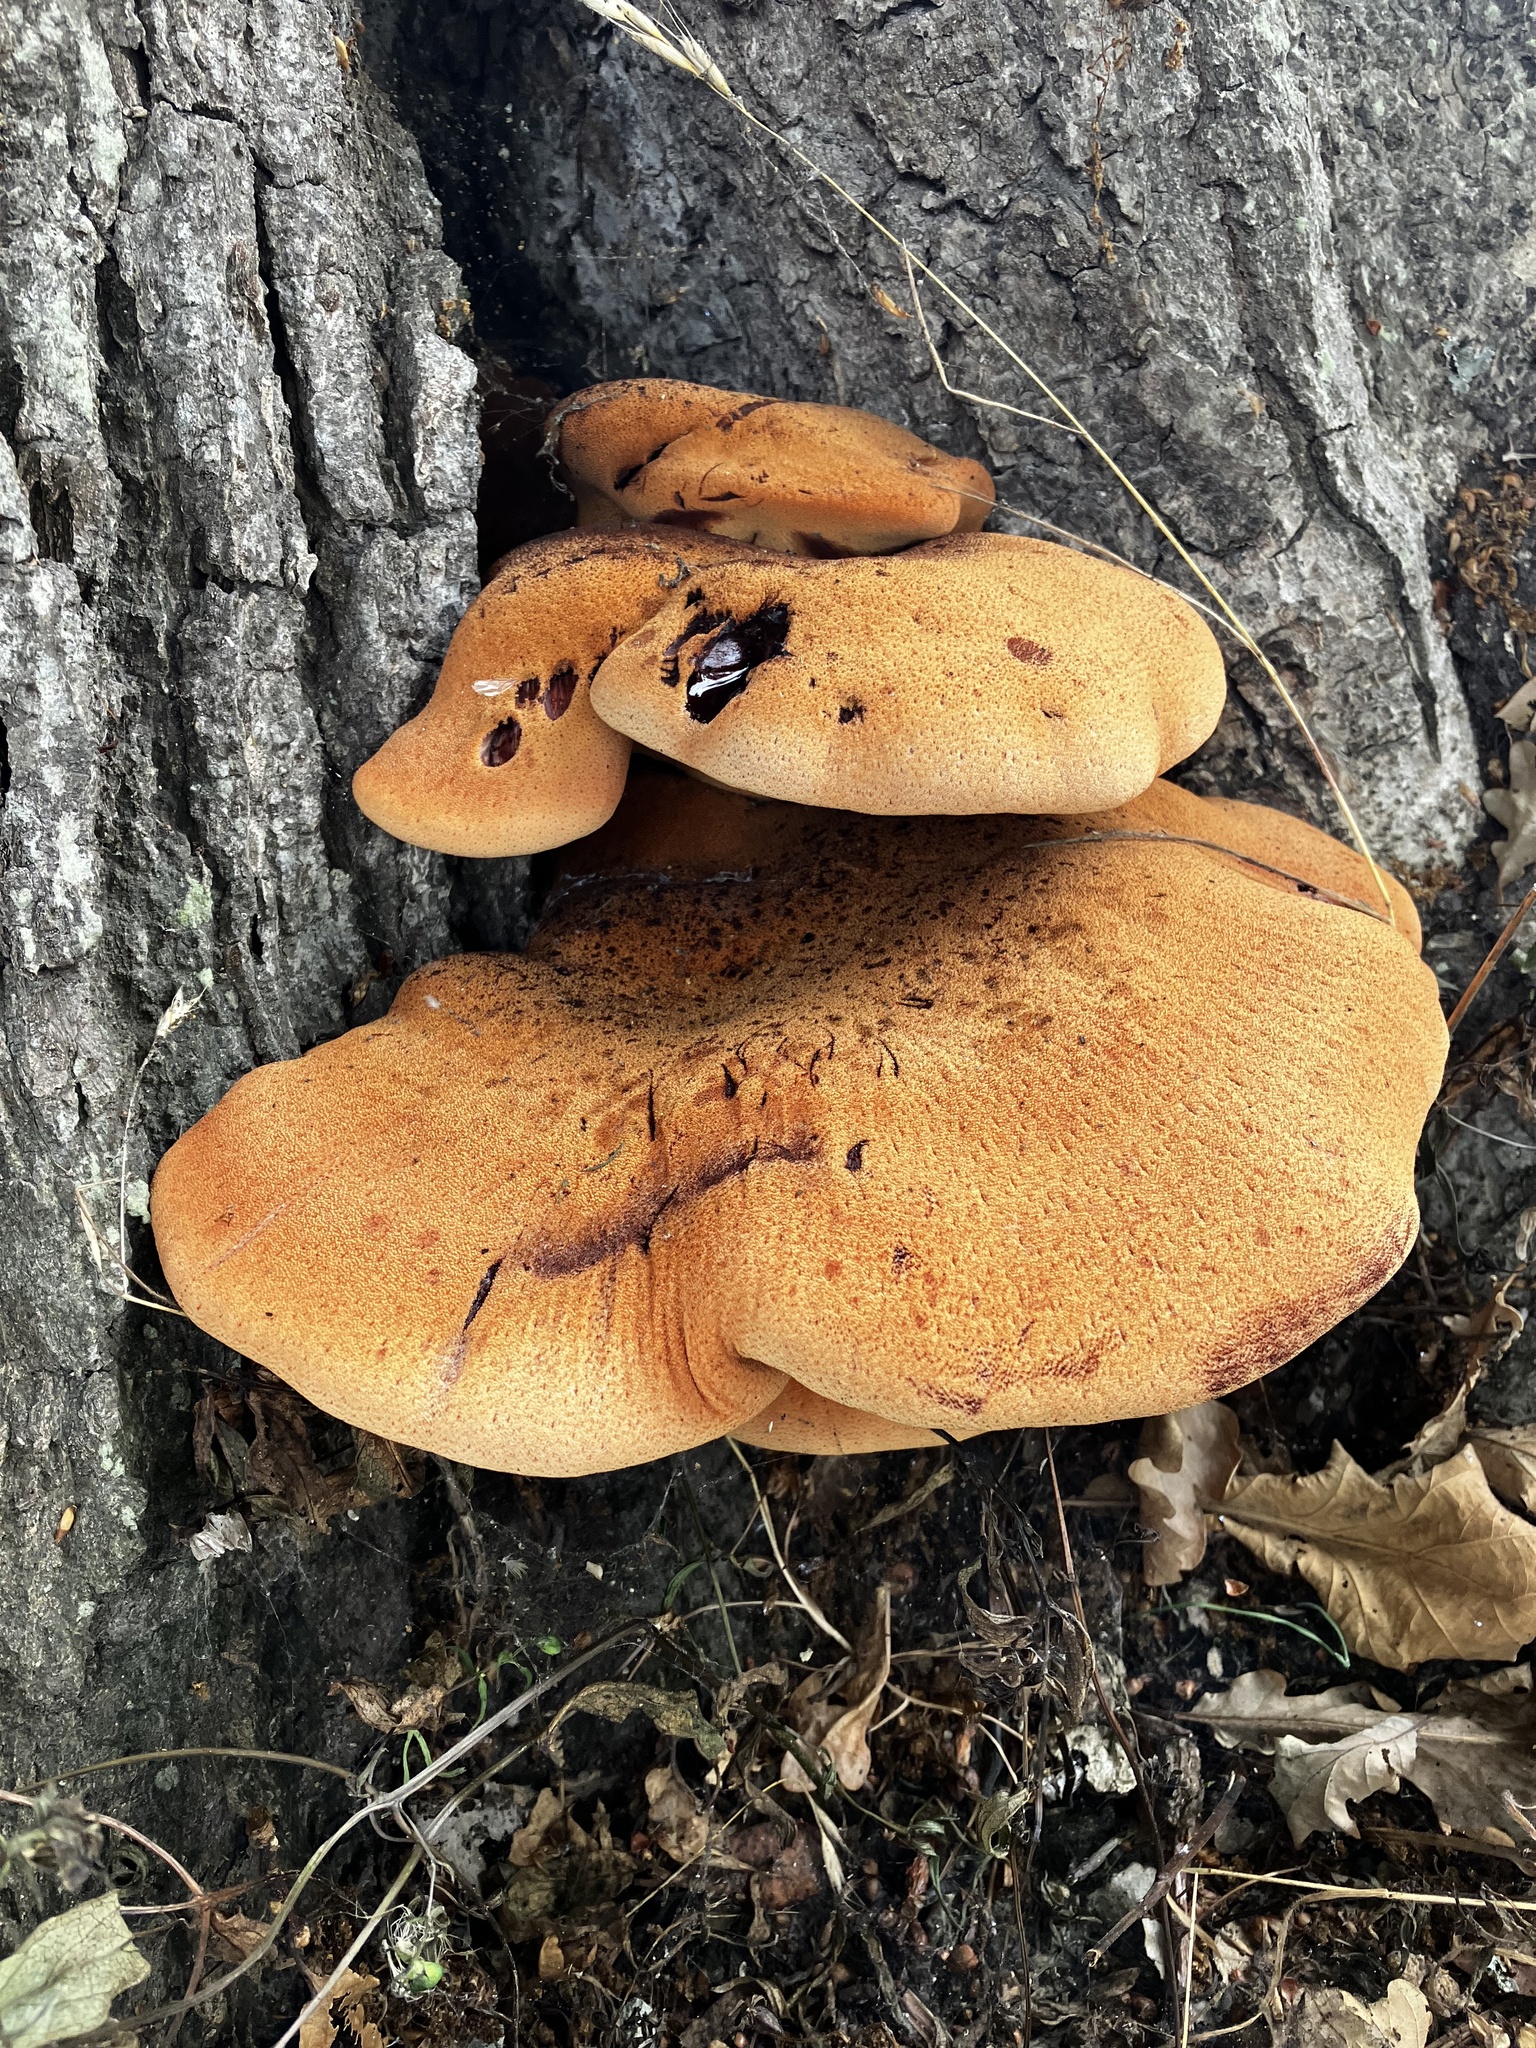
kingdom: Fungi
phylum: Basidiomycota
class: Agaricomycetes
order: Agaricales
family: Fistulinaceae
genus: Fistulina
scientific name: Fistulina hepatica
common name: Beef-steak fungus
